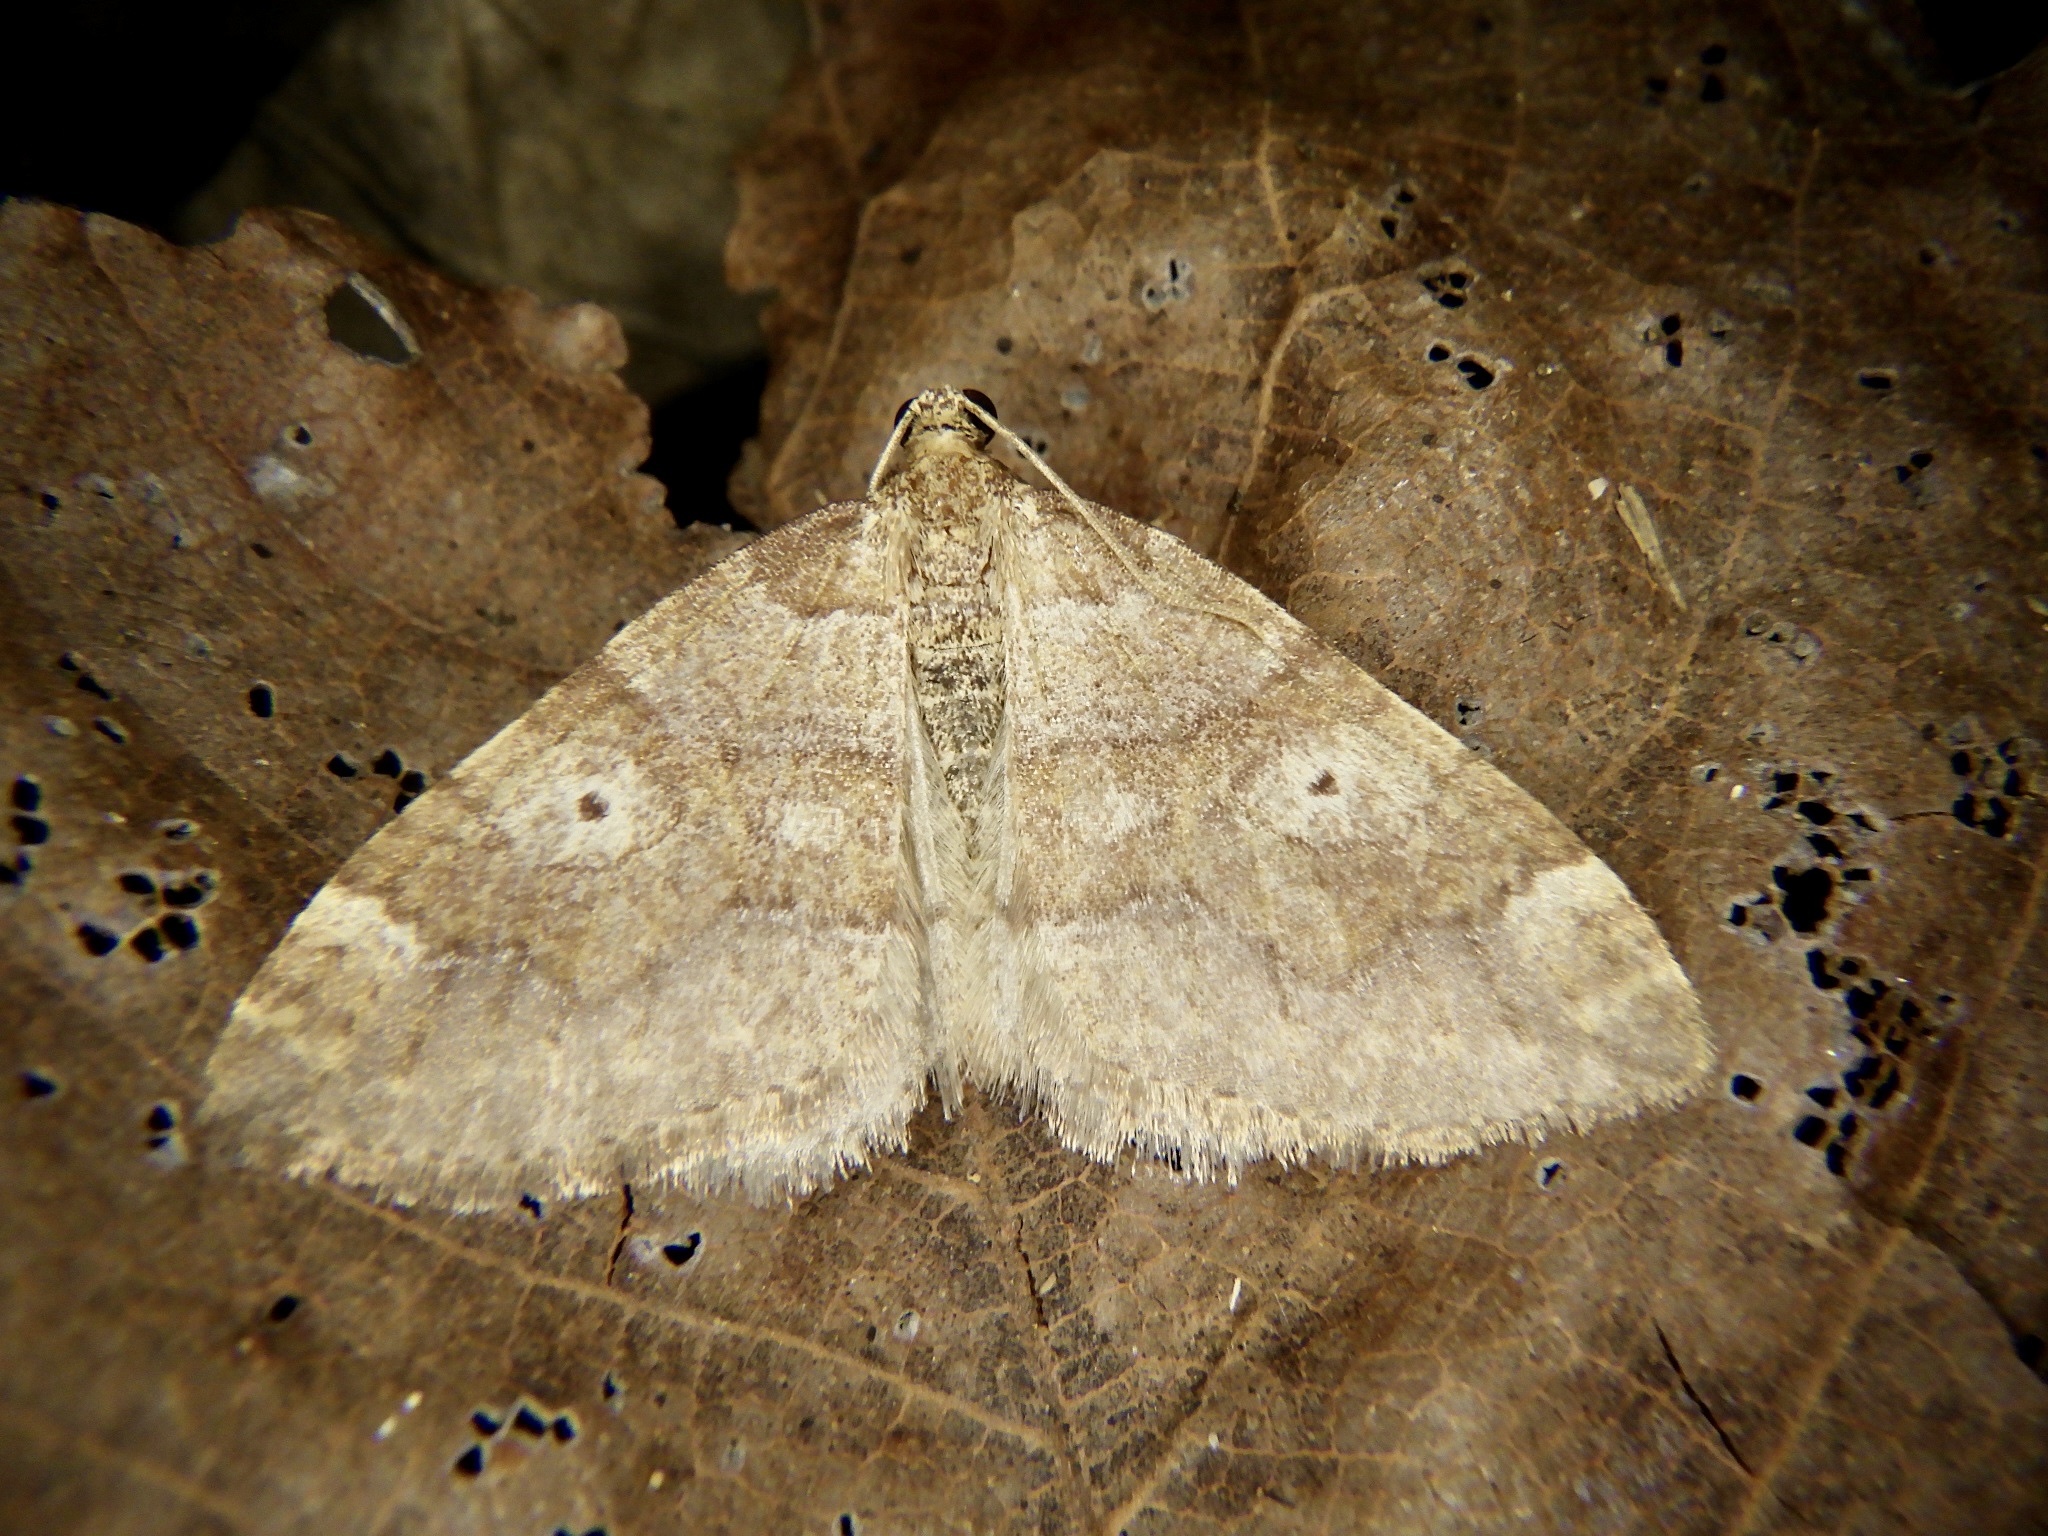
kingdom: Animalia
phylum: Arthropoda
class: Insecta
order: Lepidoptera
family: Geometridae
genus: Idiotephria
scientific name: Idiotephria evanescens
